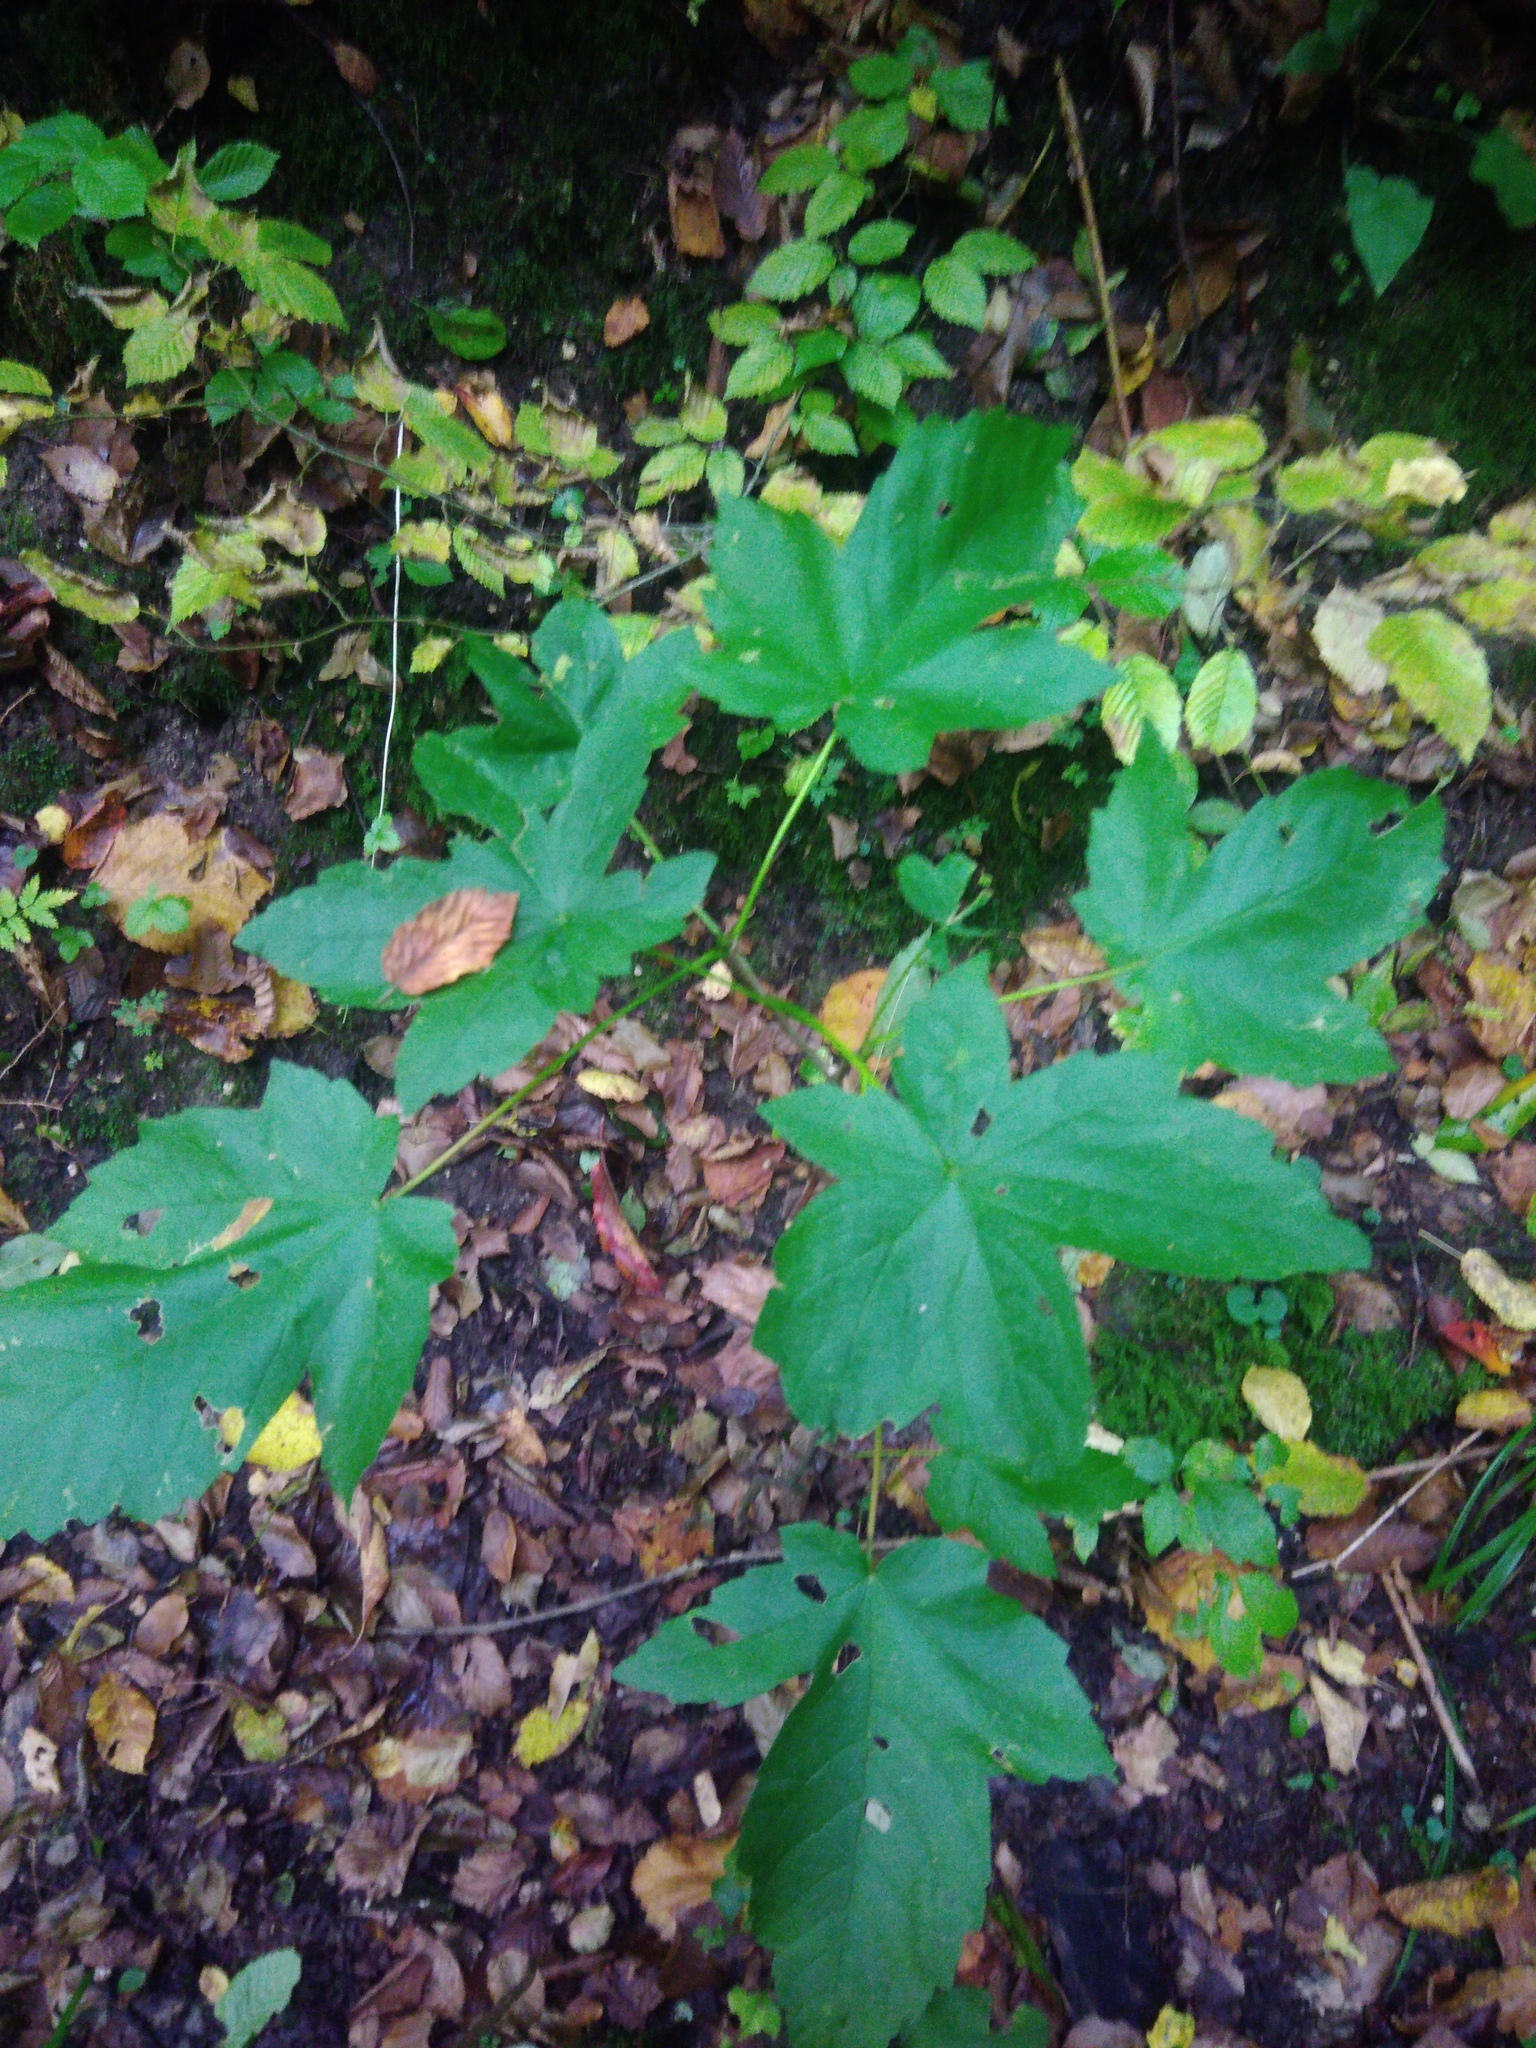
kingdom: Plantae
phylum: Tracheophyta
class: Magnoliopsida
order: Sapindales
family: Sapindaceae
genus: Acer
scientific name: Acer pseudoplatanus
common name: Sycamore
